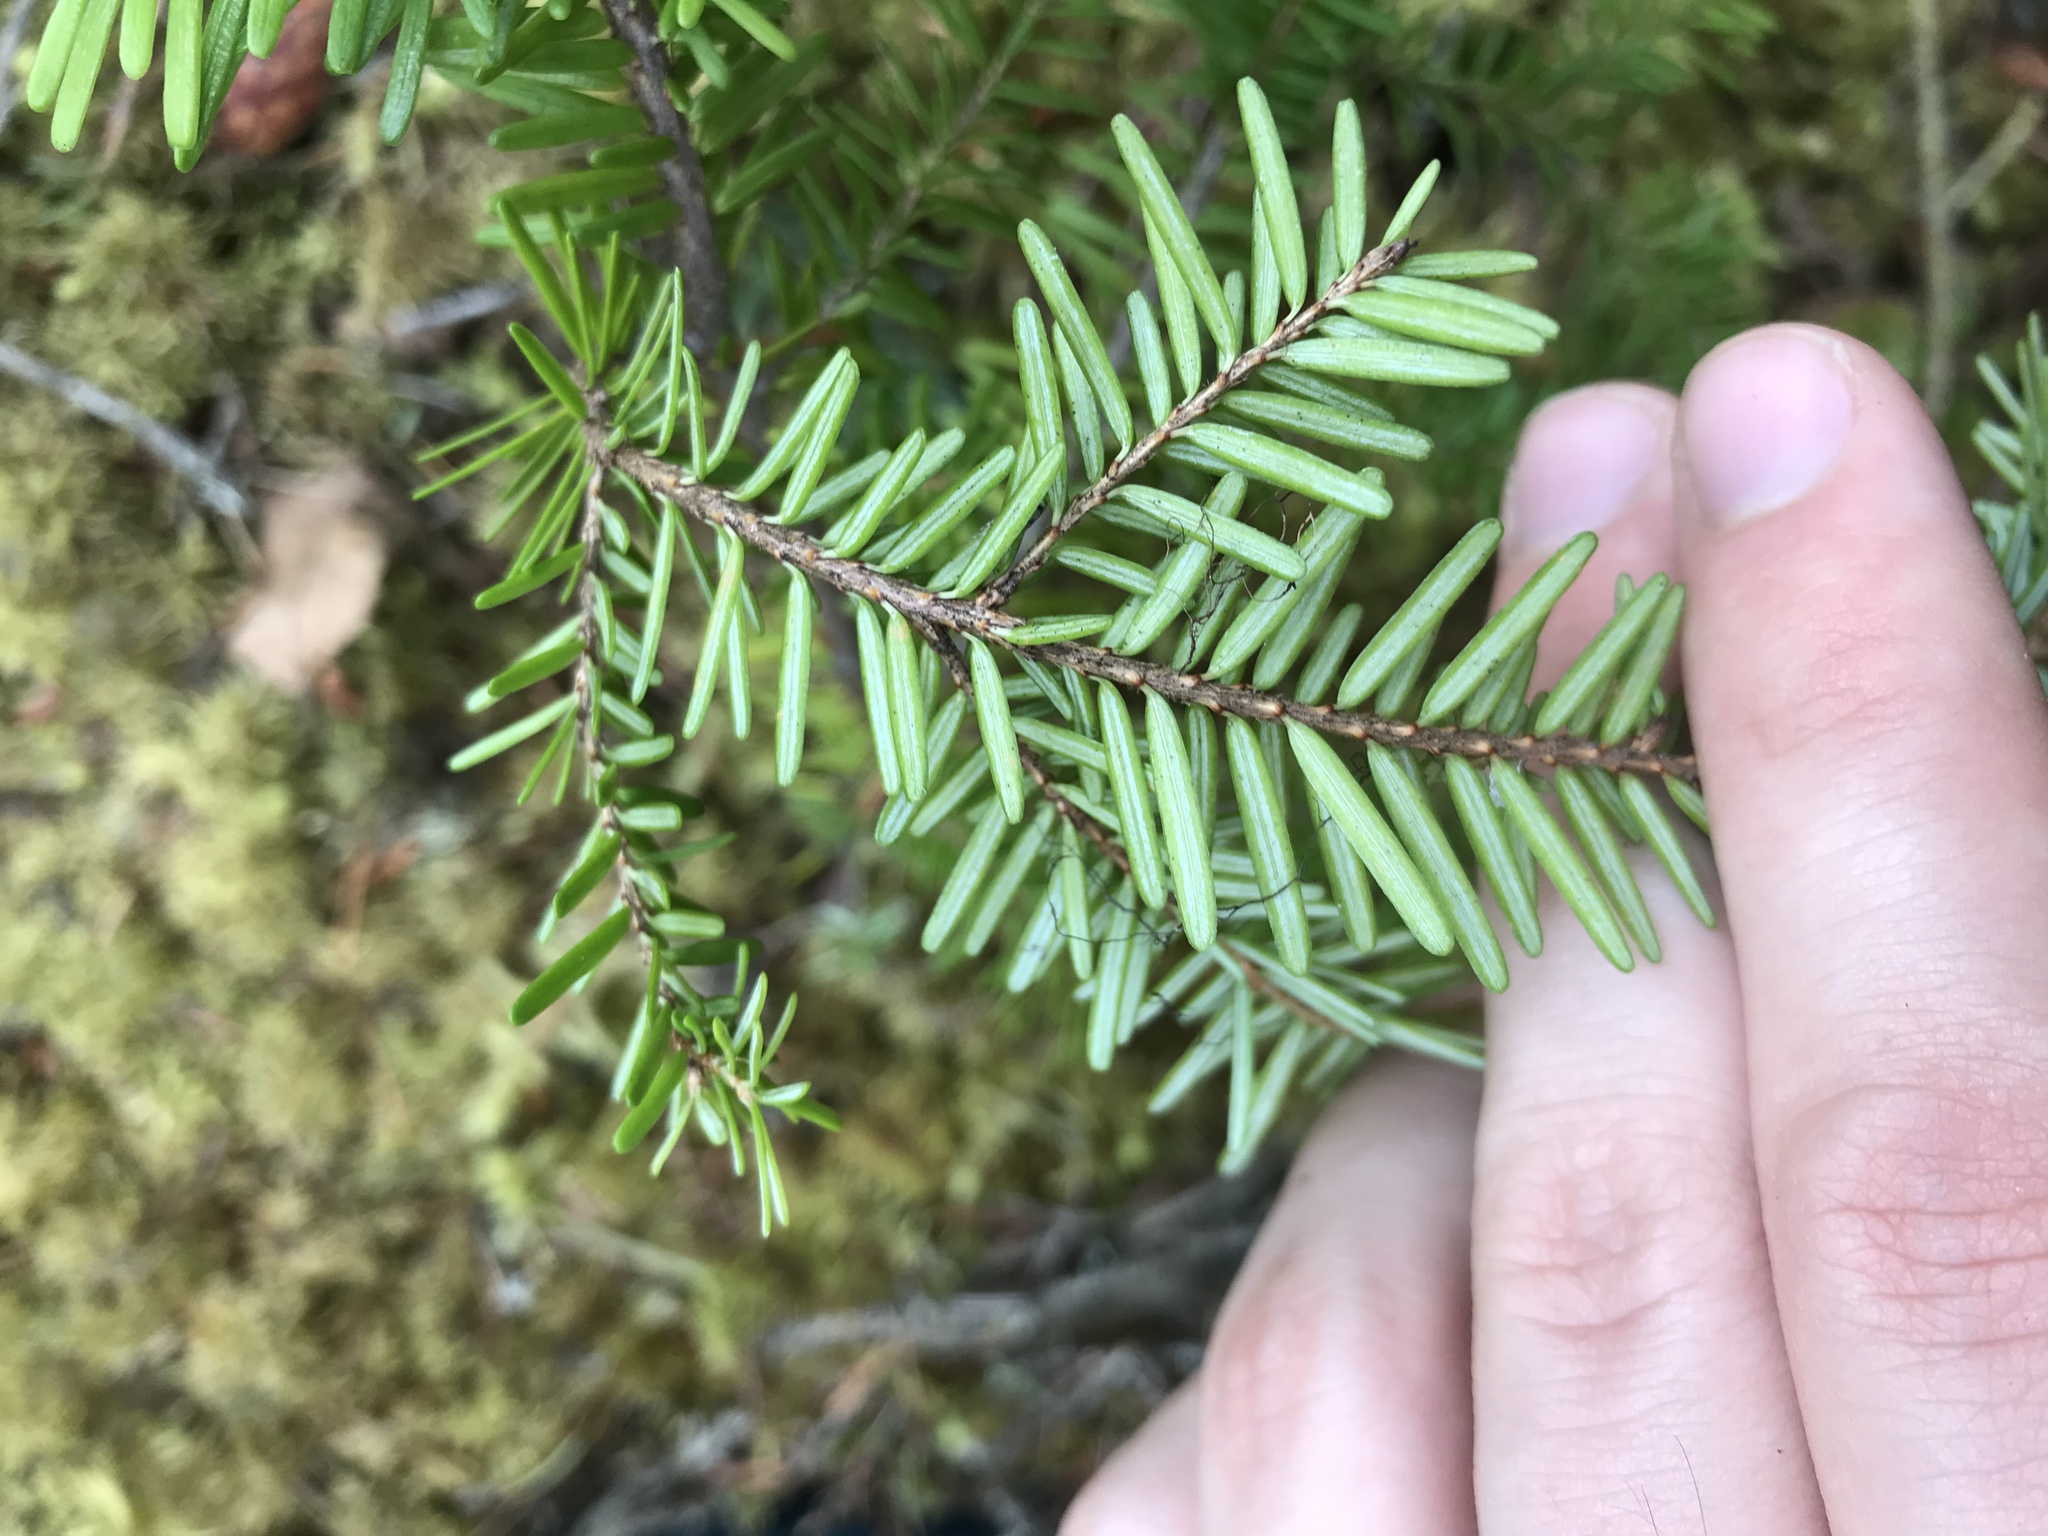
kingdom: Plantae
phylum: Tracheophyta
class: Pinopsida
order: Pinales
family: Pinaceae
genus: Tsuga
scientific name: Tsuga heterophylla
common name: Western hemlock
